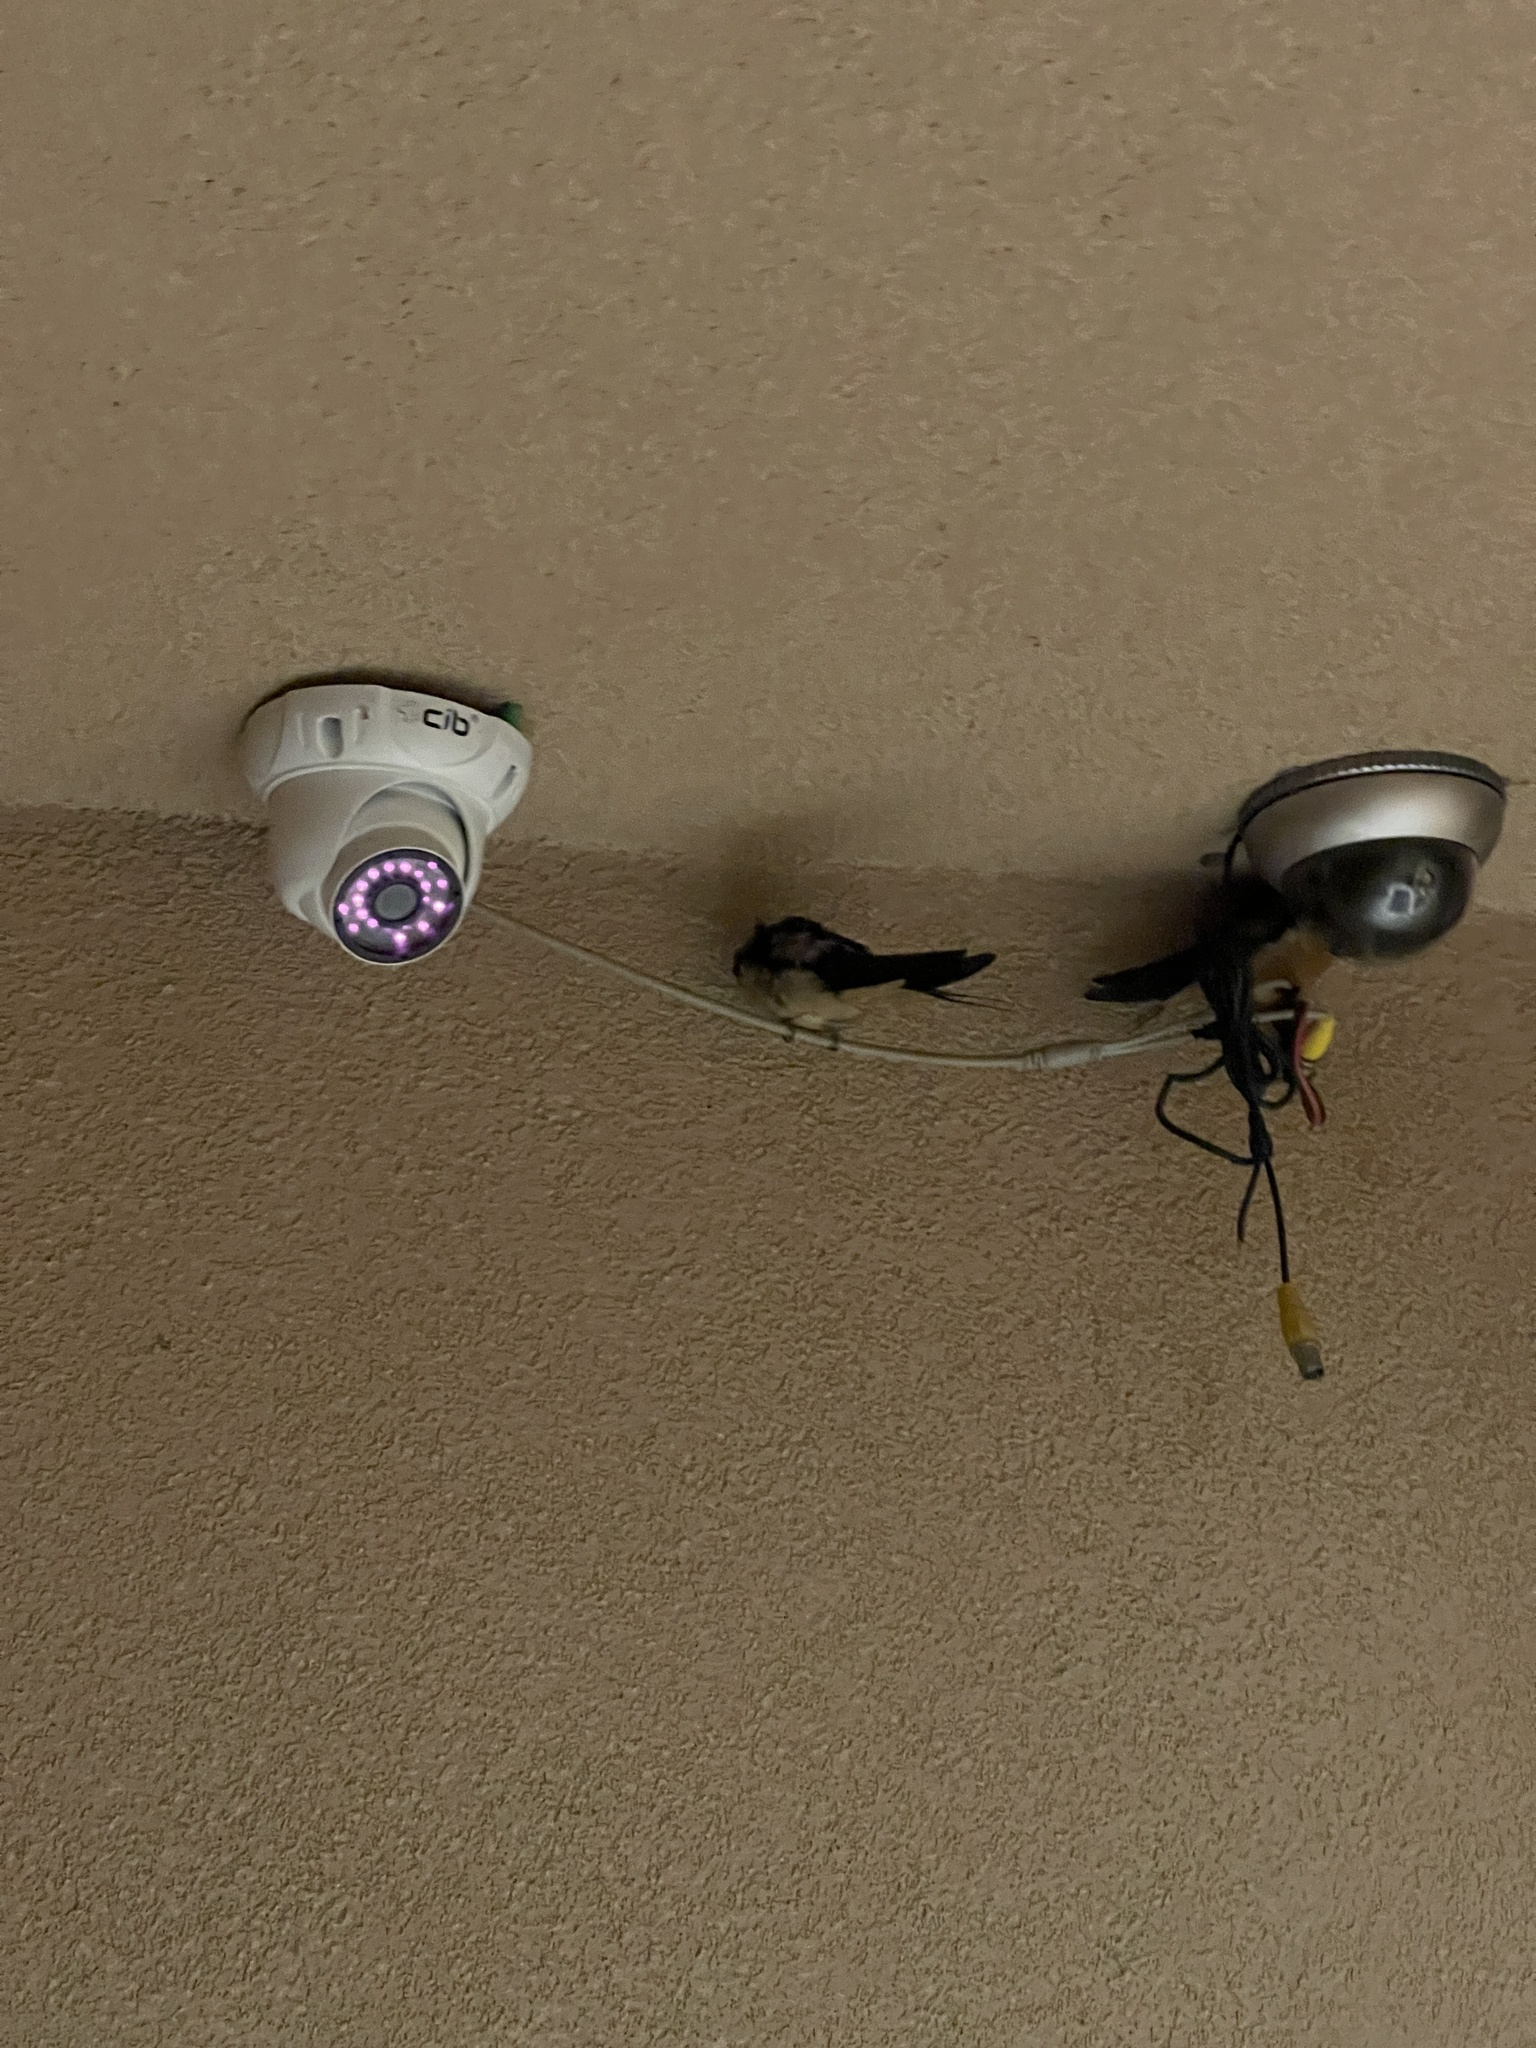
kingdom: Animalia
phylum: Chordata
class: Aves
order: Passeriformes
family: Hirundinidae
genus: Hirundo
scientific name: Hirundo rustica
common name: Barn swallow
